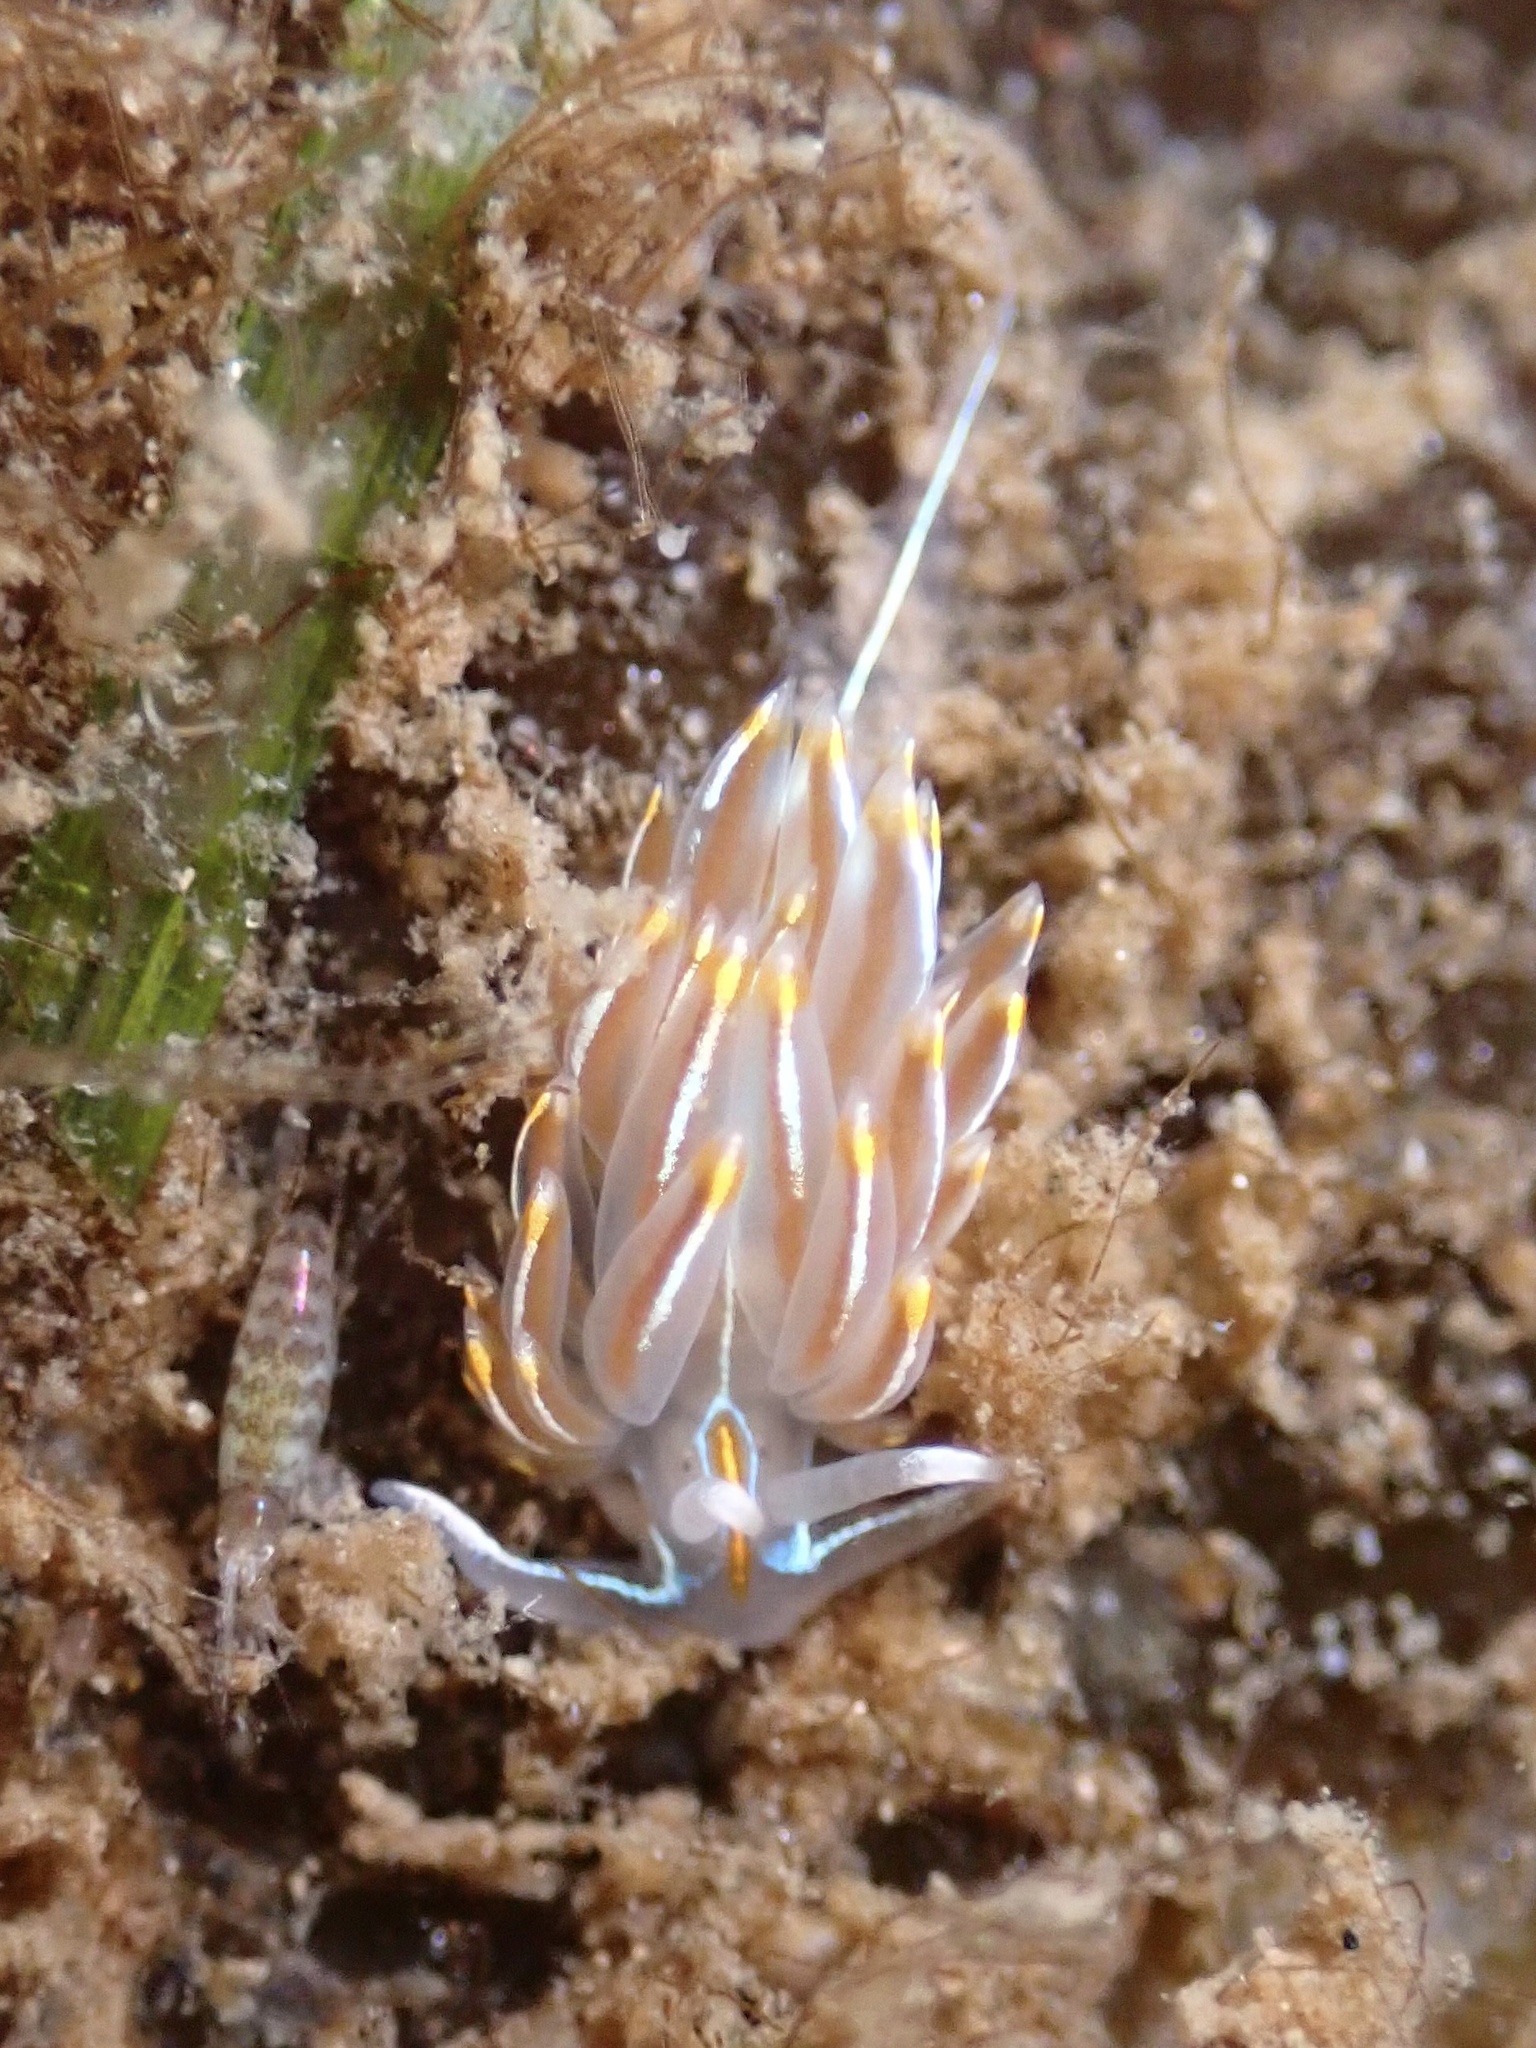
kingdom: Animalia
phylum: Mollusca
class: Gastropoda
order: Nudibranchia
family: Myrrhinidae
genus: Hermissenda
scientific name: Hermissenda crassicornis
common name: Hermissenda
